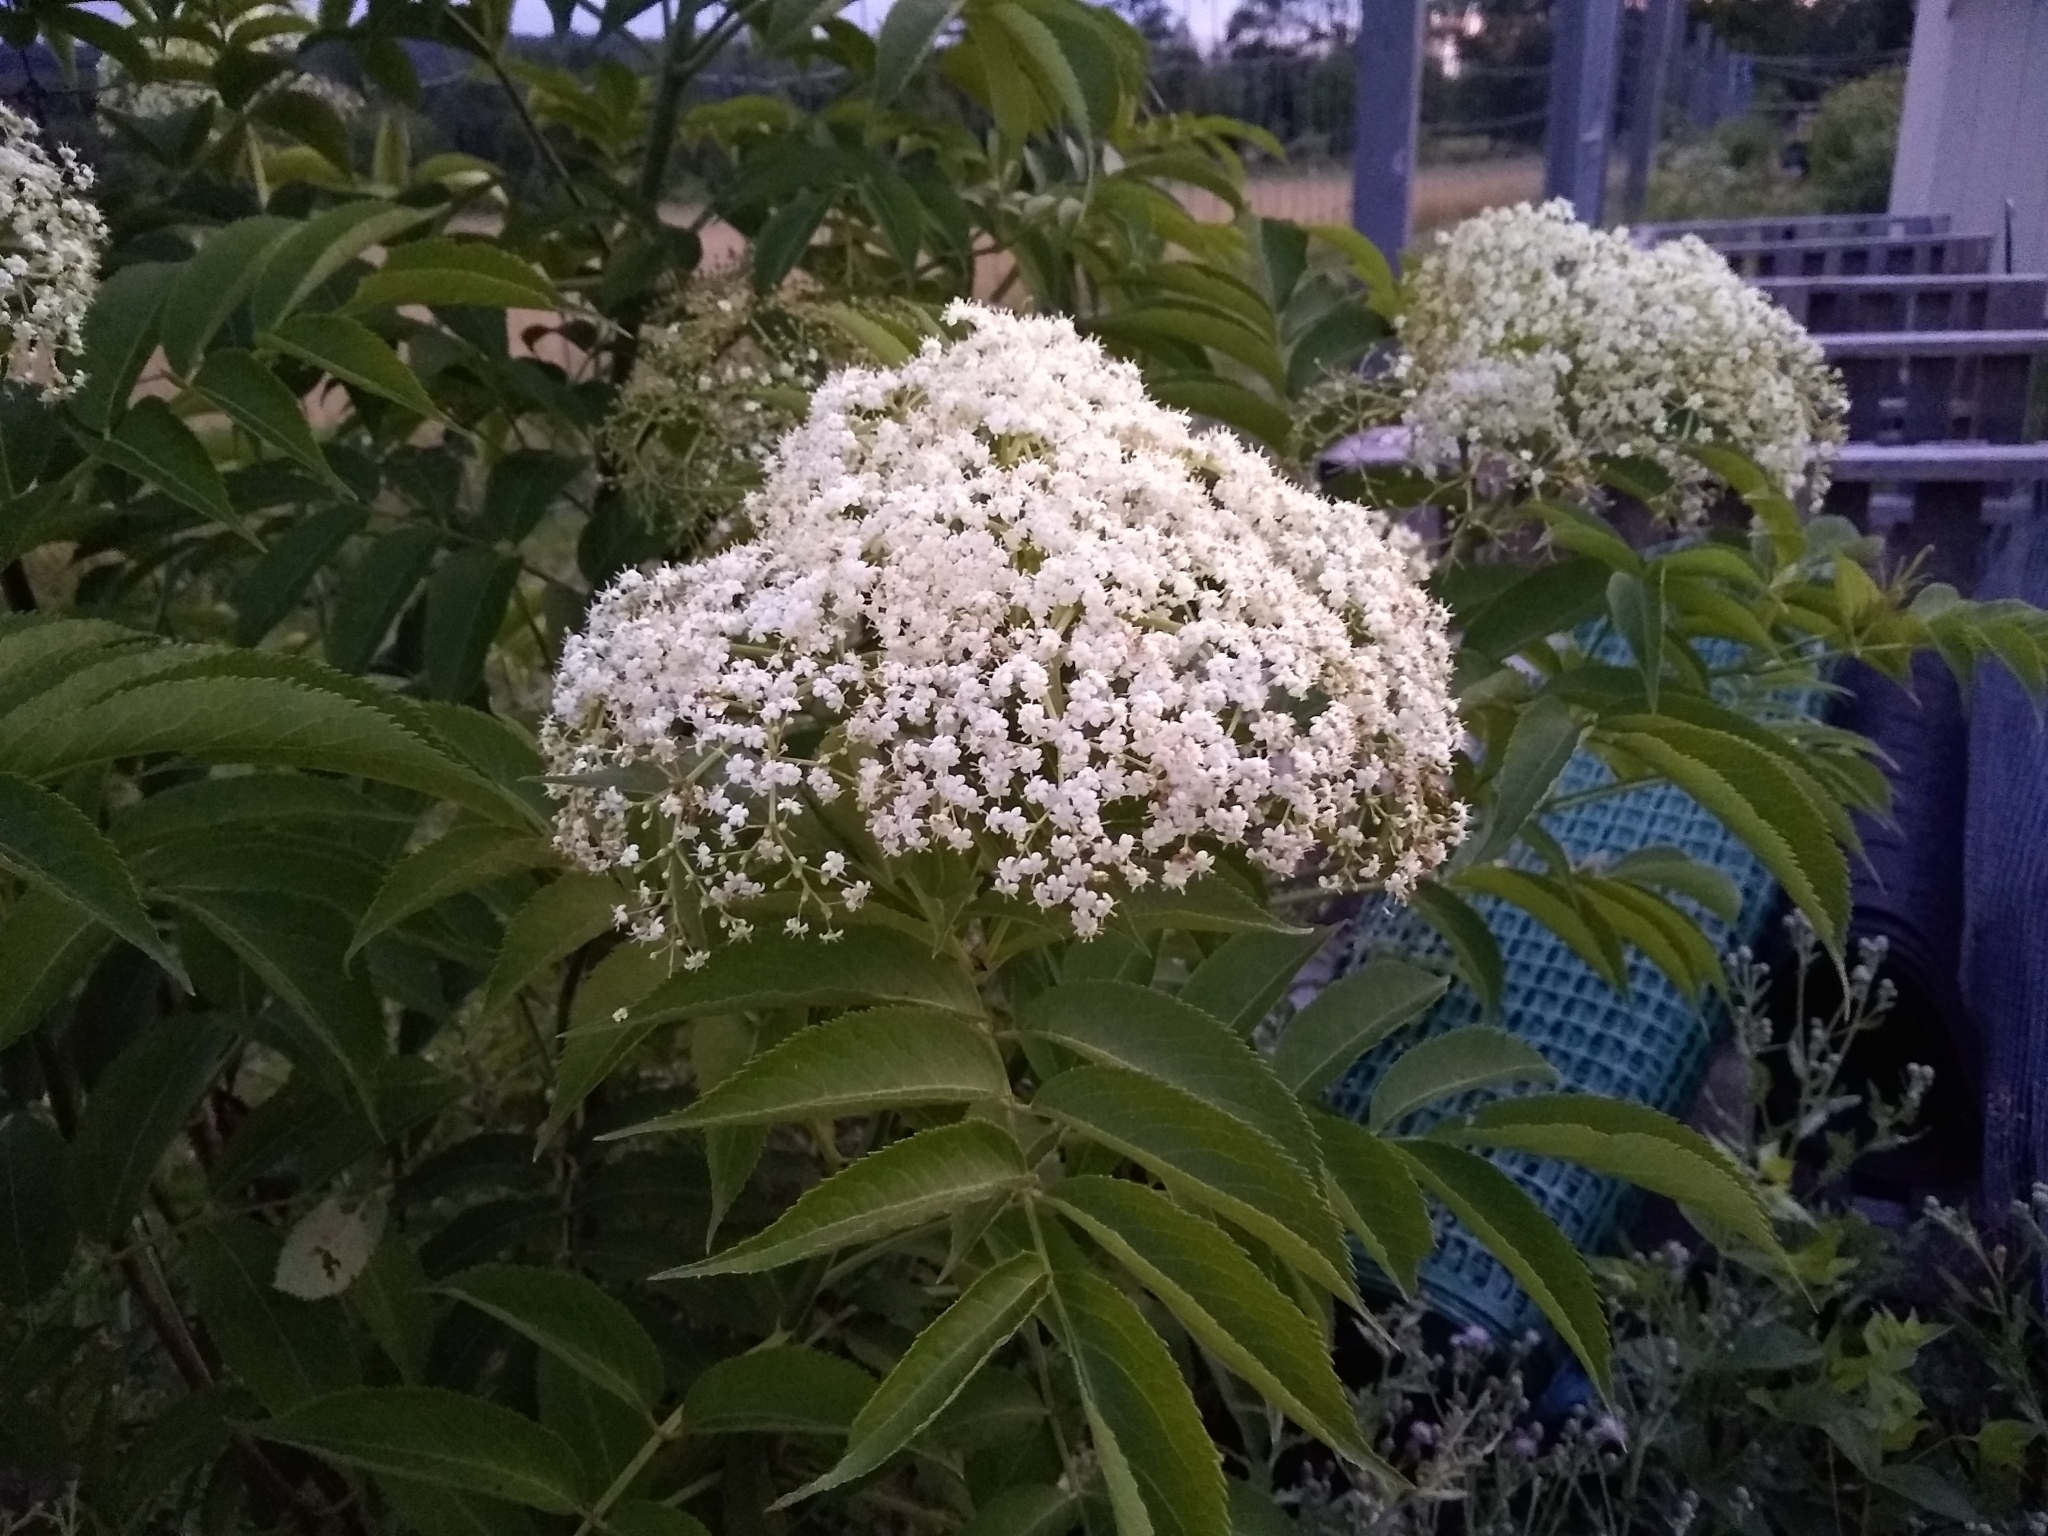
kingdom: Plantae
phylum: Tracheophyta
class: Magnoliopsida
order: Dipsacales
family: Viburnaceae
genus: Sambucus
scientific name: Sambucus canadensis
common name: American elder
